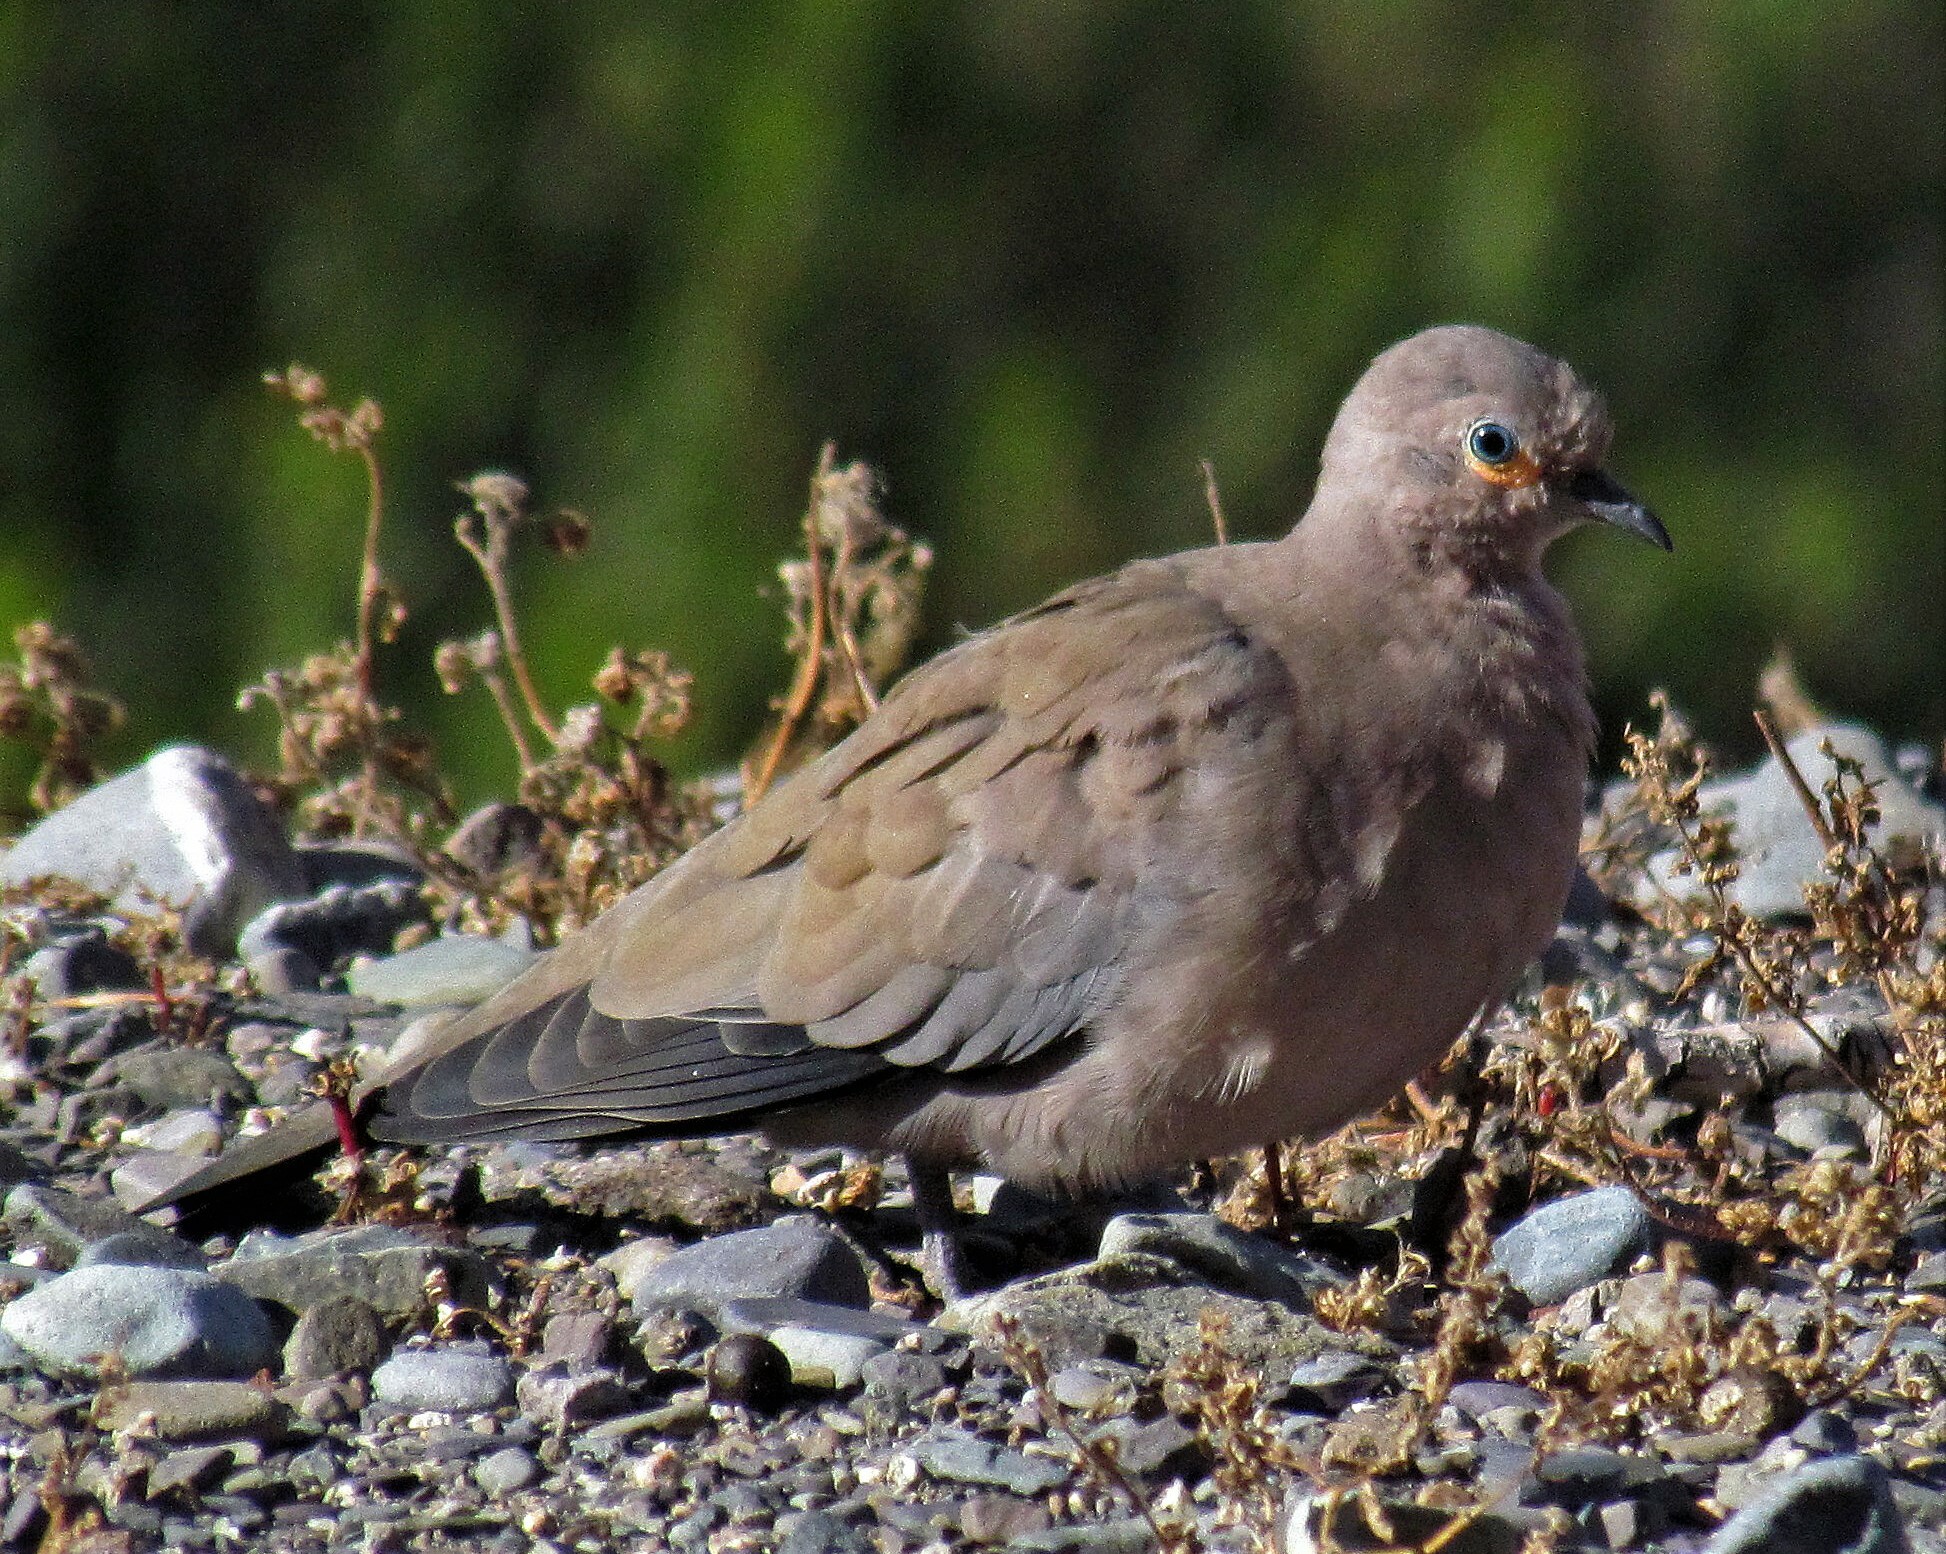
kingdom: Animalia
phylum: Chordata
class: Aves
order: Columbiformes
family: Columbidae
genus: Metriopelia
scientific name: Metriopelia melanoptera
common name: Black-winged ground dove
